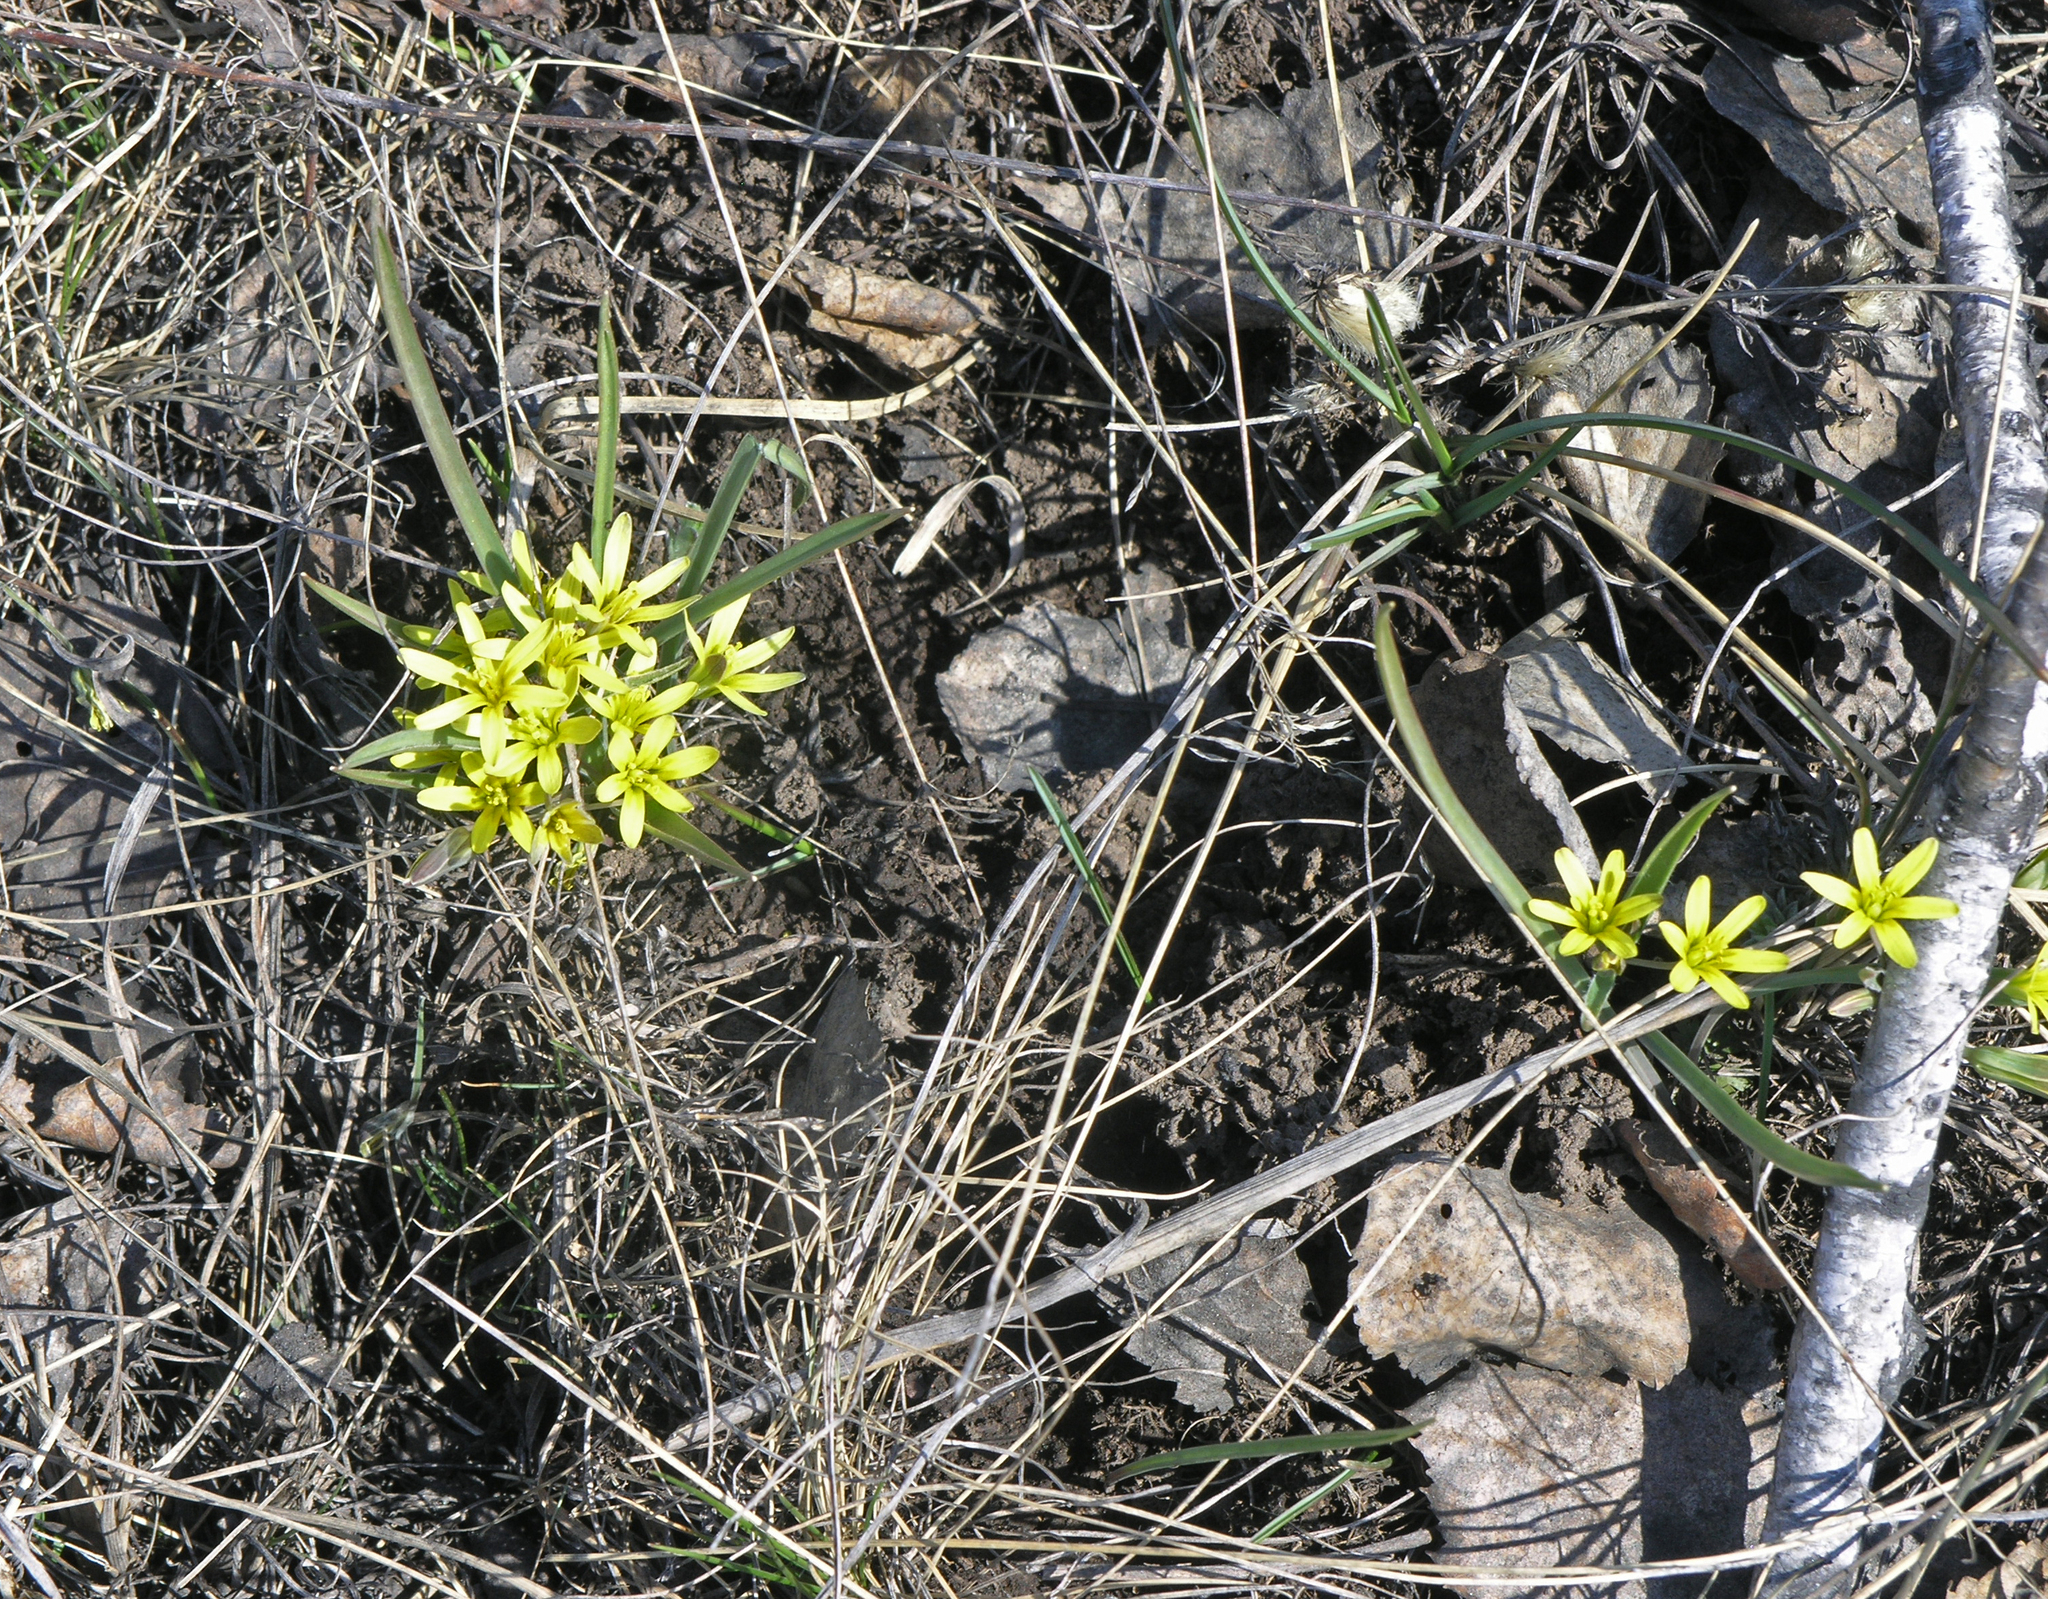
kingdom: Plantae
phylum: Tracheophyta
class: Liliopsida
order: Liliales
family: Liliaceae
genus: Gagea
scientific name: Gagea fedtschenkoana
